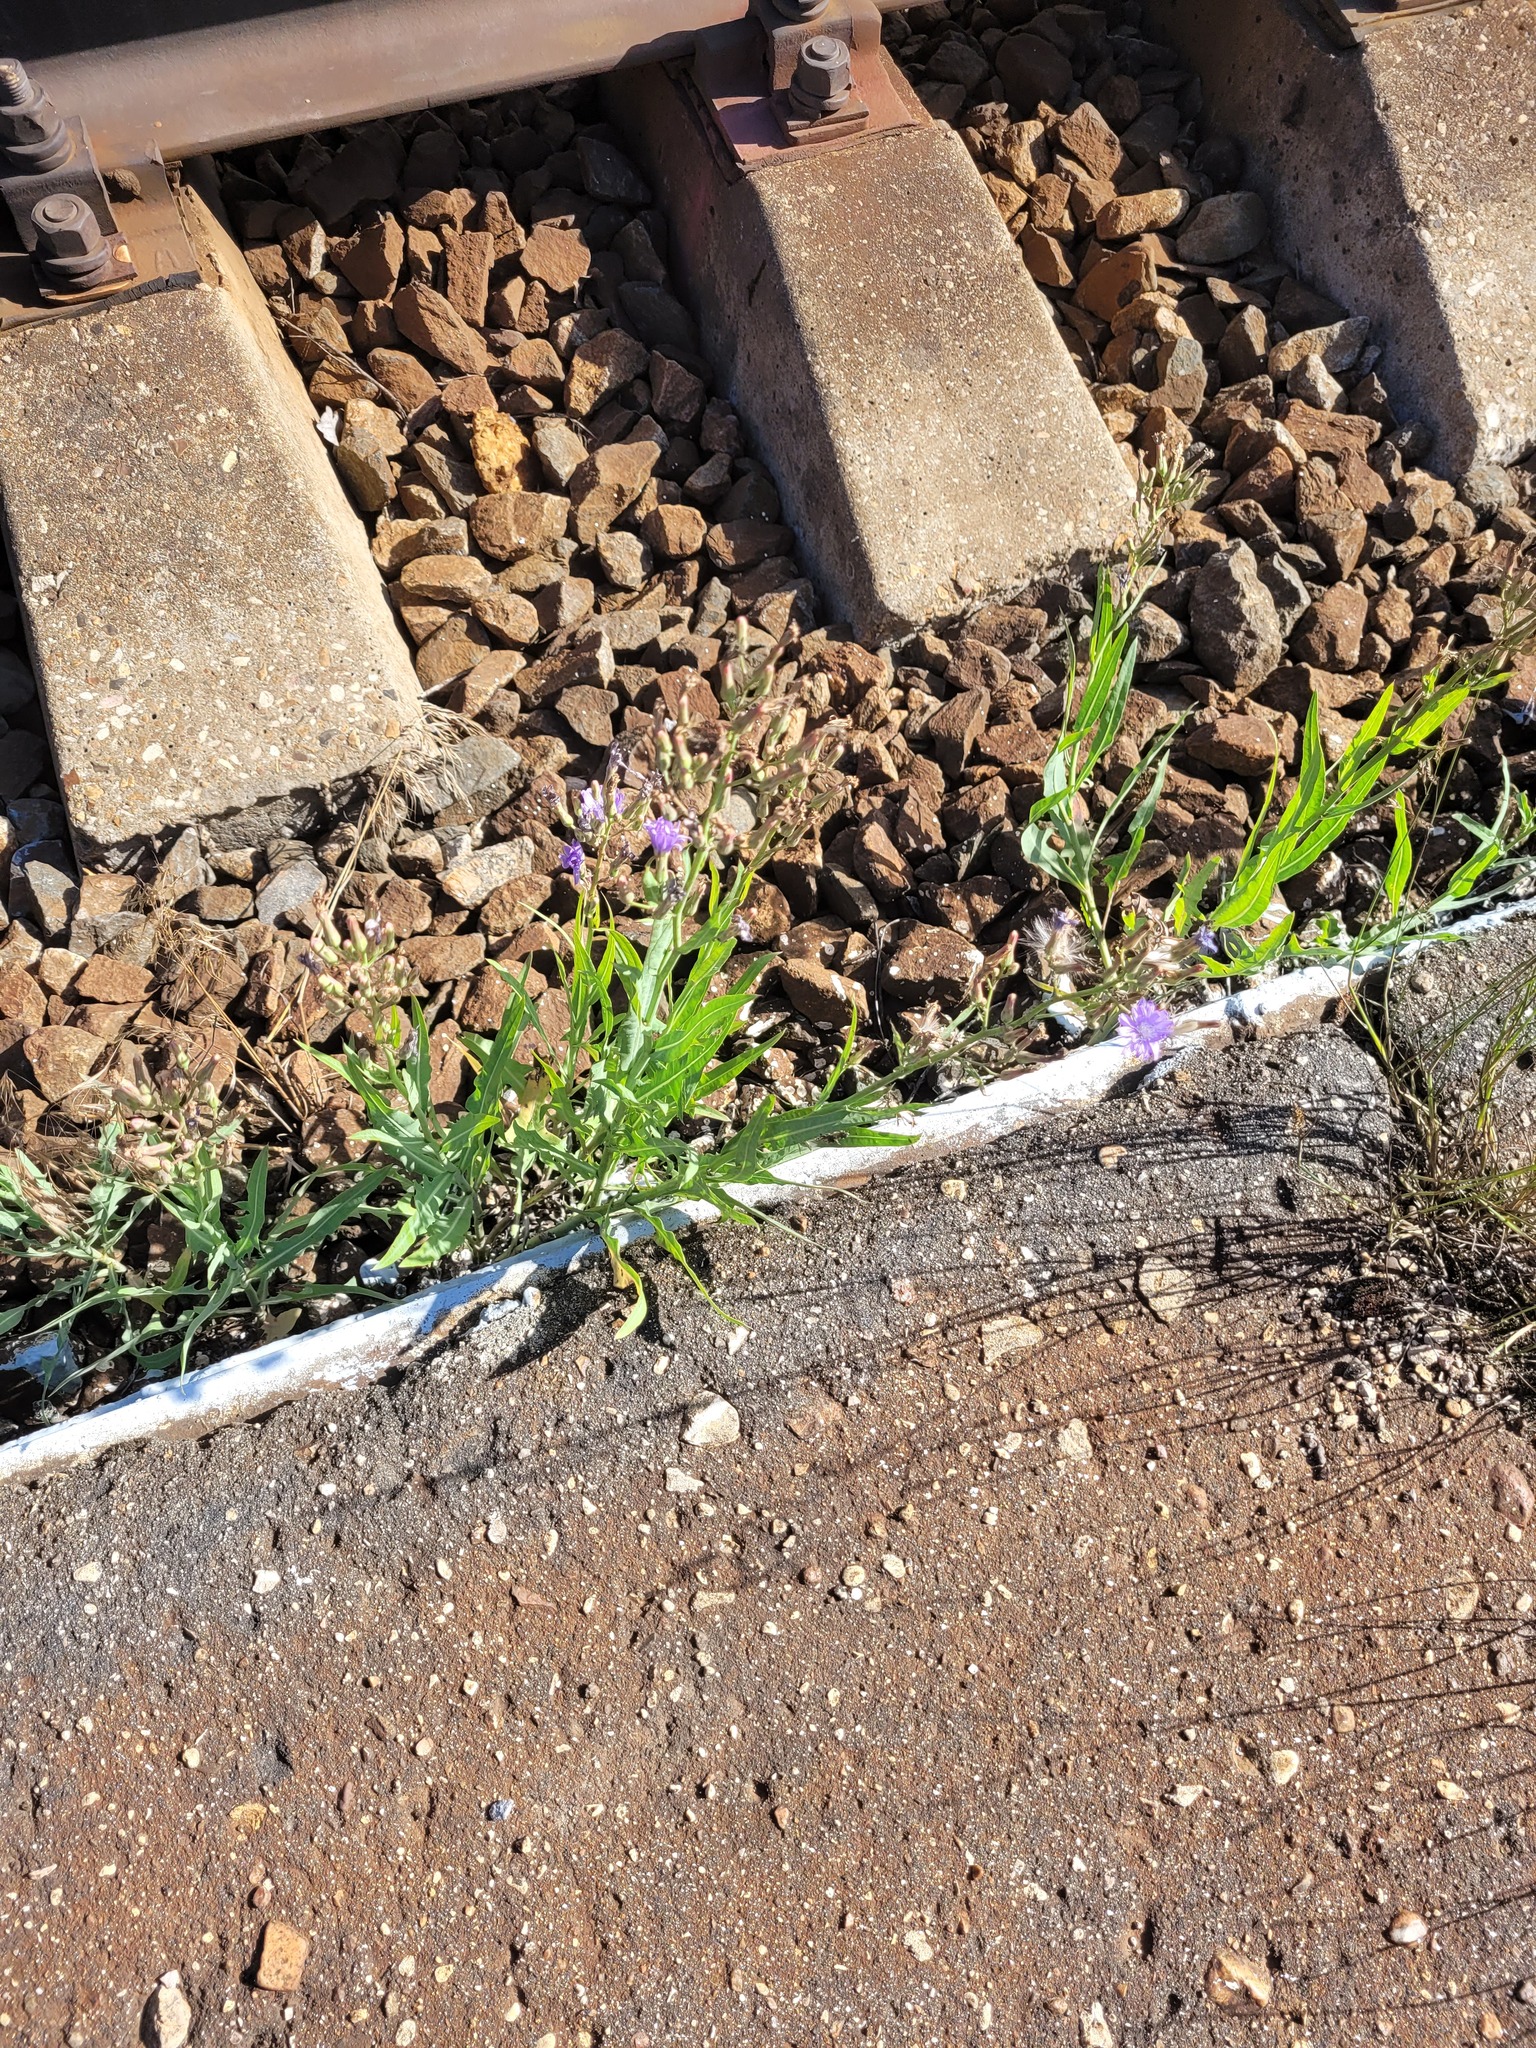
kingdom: Plantae
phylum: Tracheophyta
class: Magnoliopsida
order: Asterales
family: Asteraceae
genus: Lactuca
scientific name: Lactuca tatarica
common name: Blue lettuce
